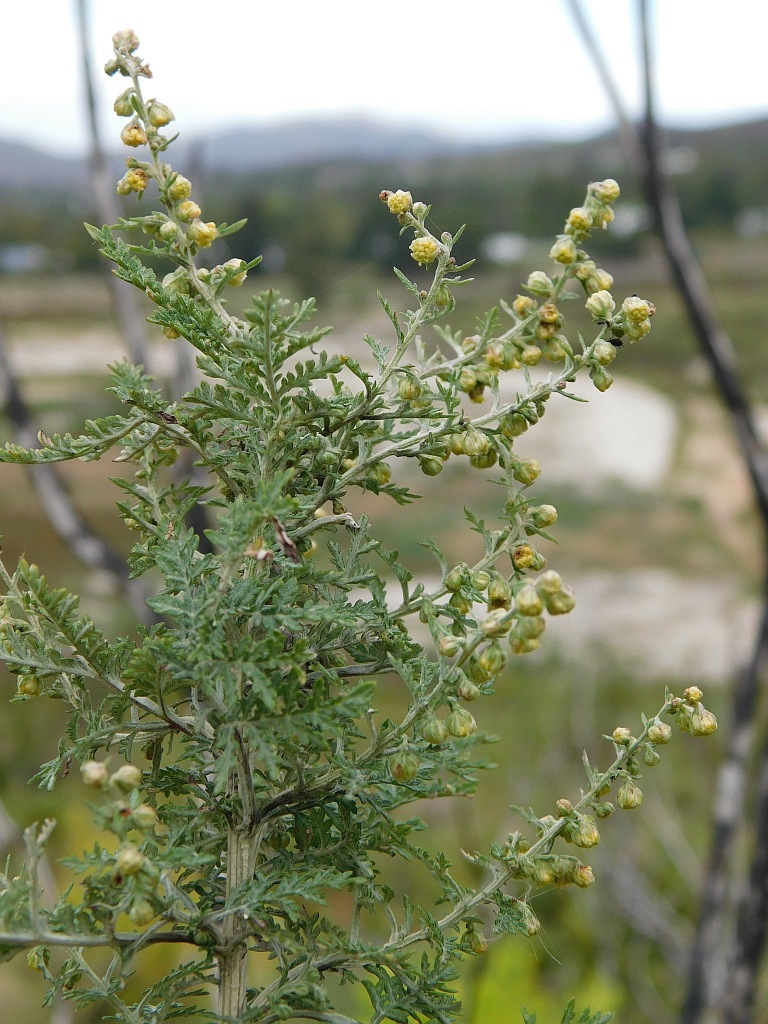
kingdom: Plantae
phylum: Tracheophyta
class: Magnoliopsida
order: Asterales
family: Asteraceae
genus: Artemisia
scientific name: Artemisia afra
